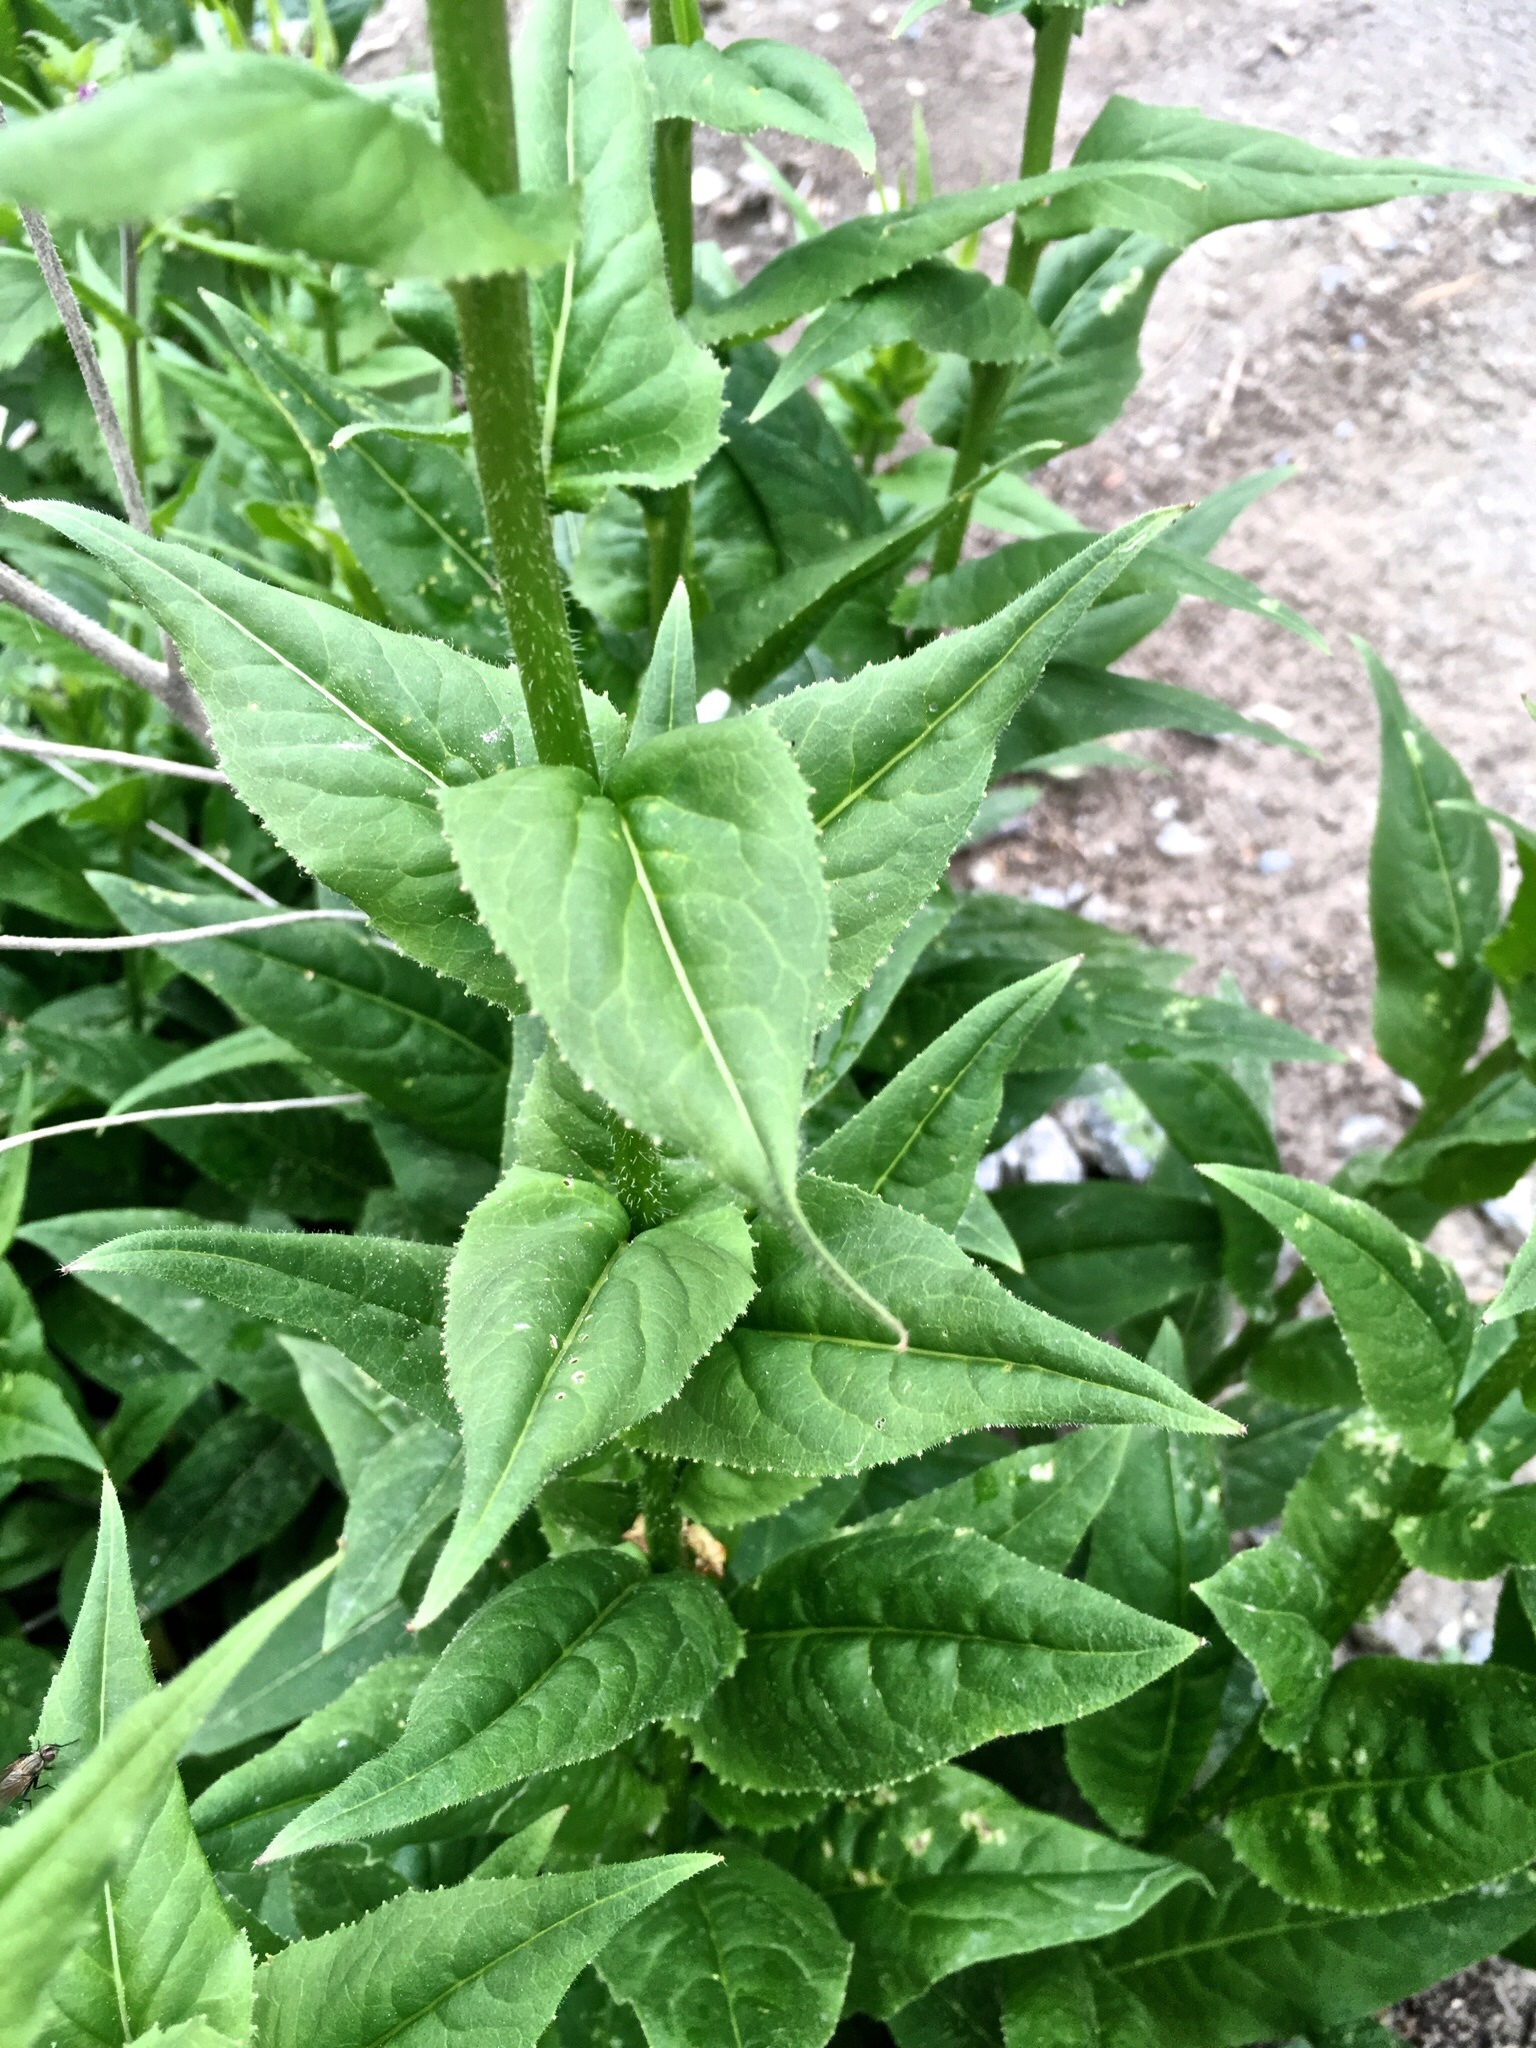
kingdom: Plantae
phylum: Tracheophyta
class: Magnoliopsida
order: Brassicales
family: Brassicaceae
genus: Hesperis
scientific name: Hesperis matronalis
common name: Dame's-violet
